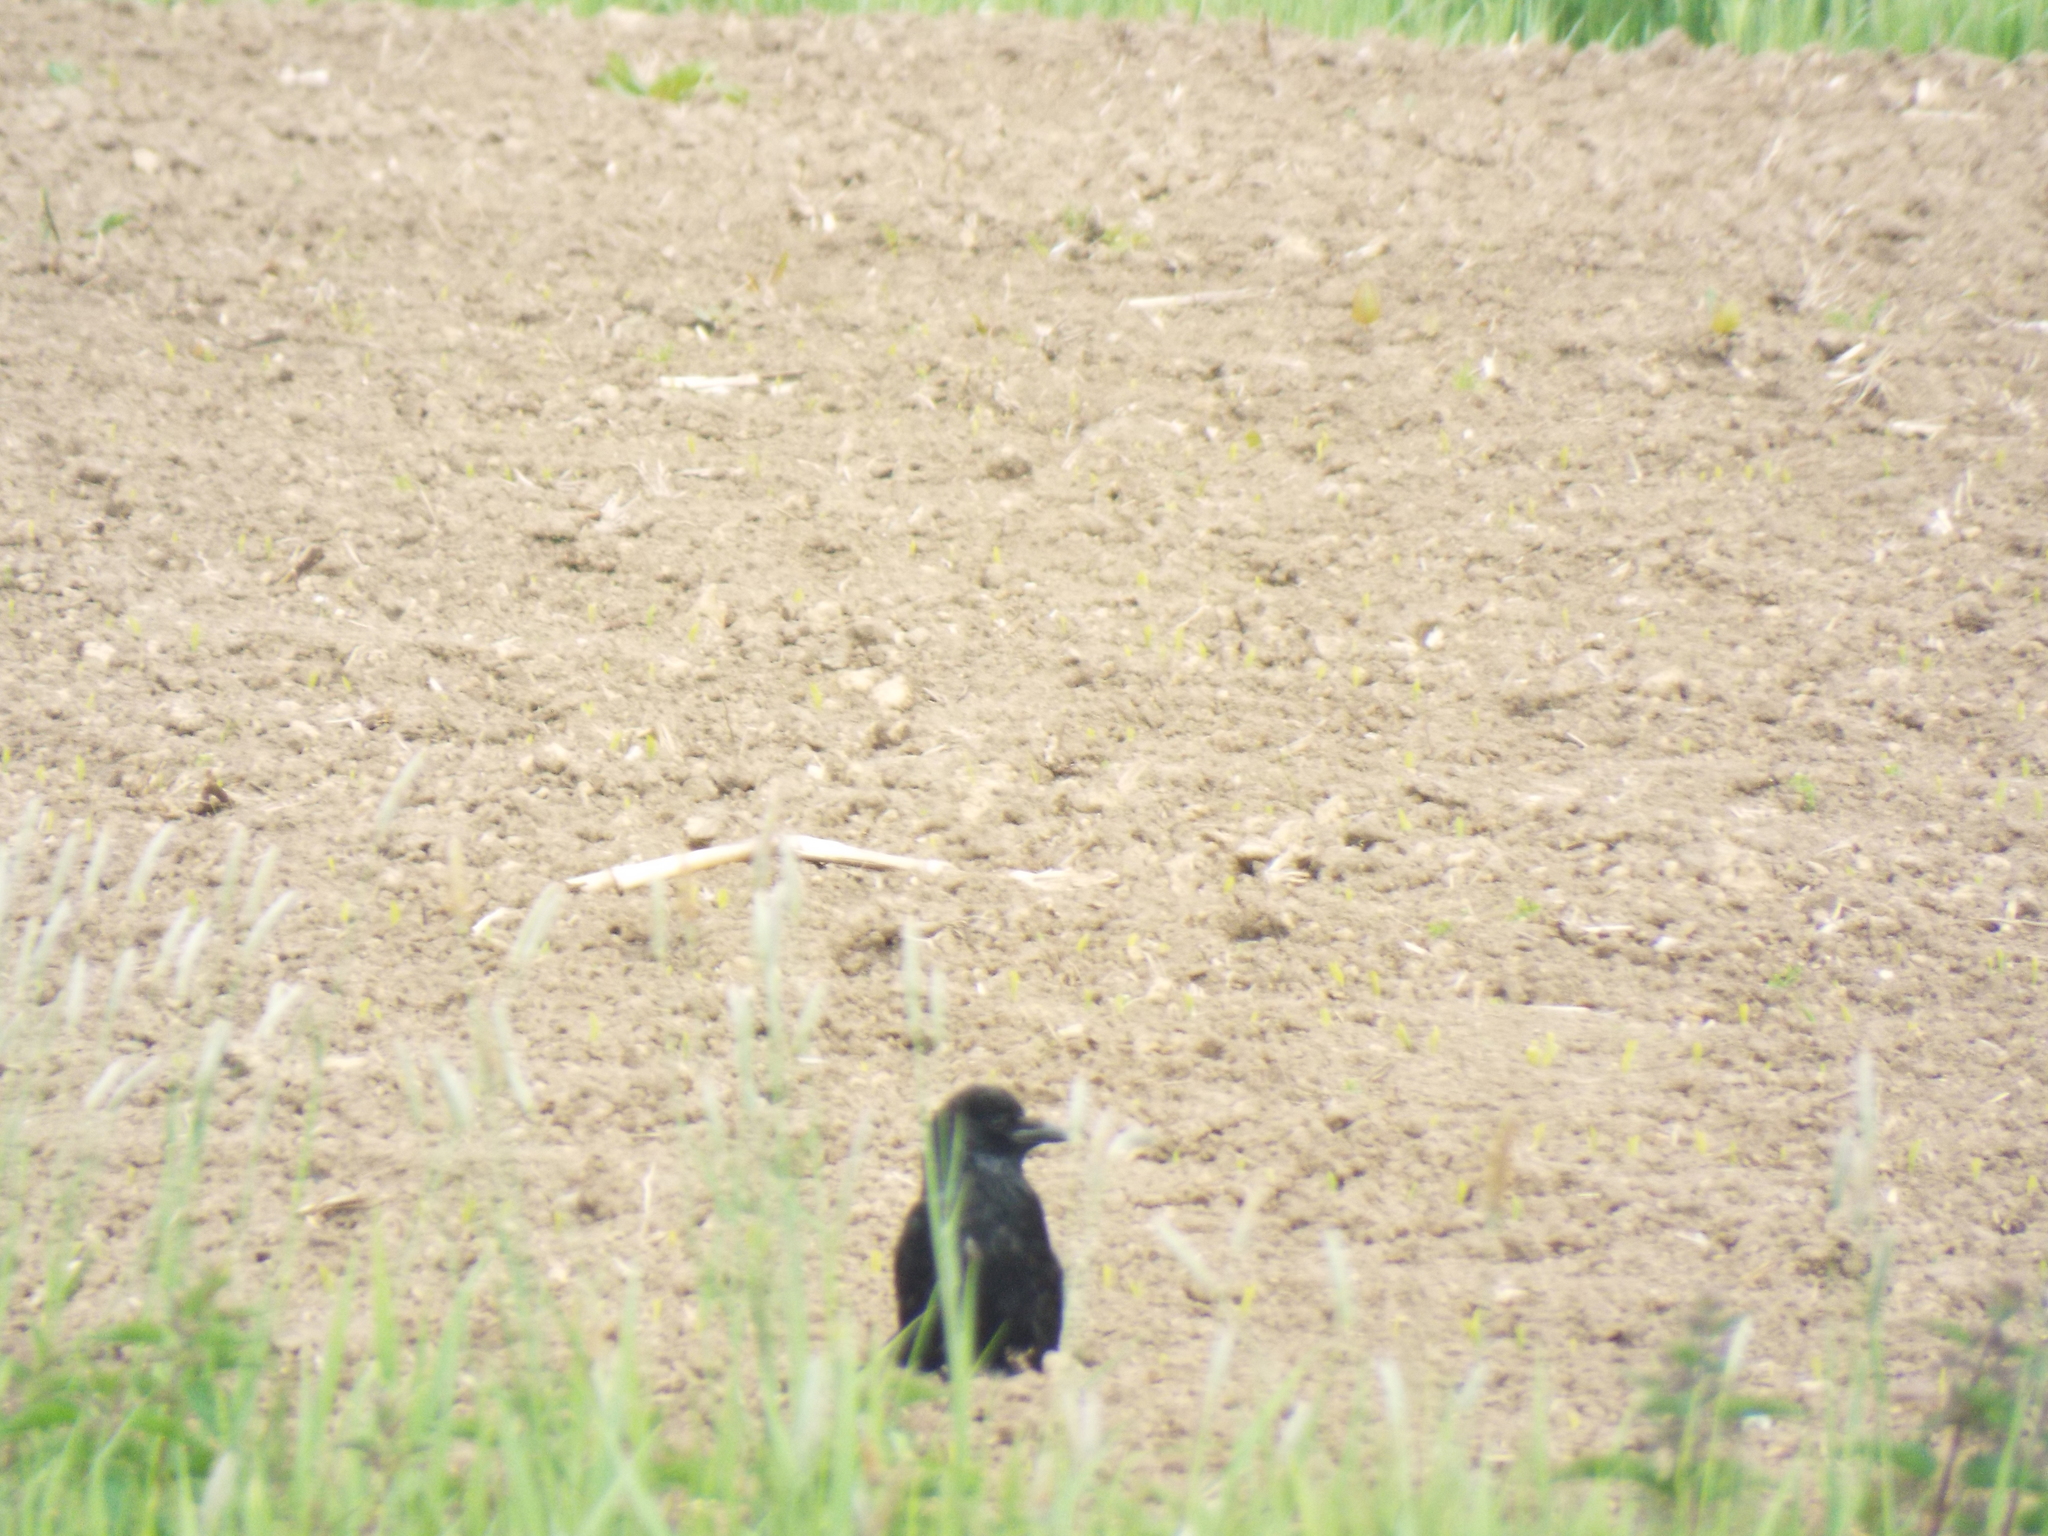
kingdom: Animalia
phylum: Chordata
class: Aves
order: Passeriformes
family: Corvidae
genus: Corvus
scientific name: Corvus corone
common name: Carrion crow
